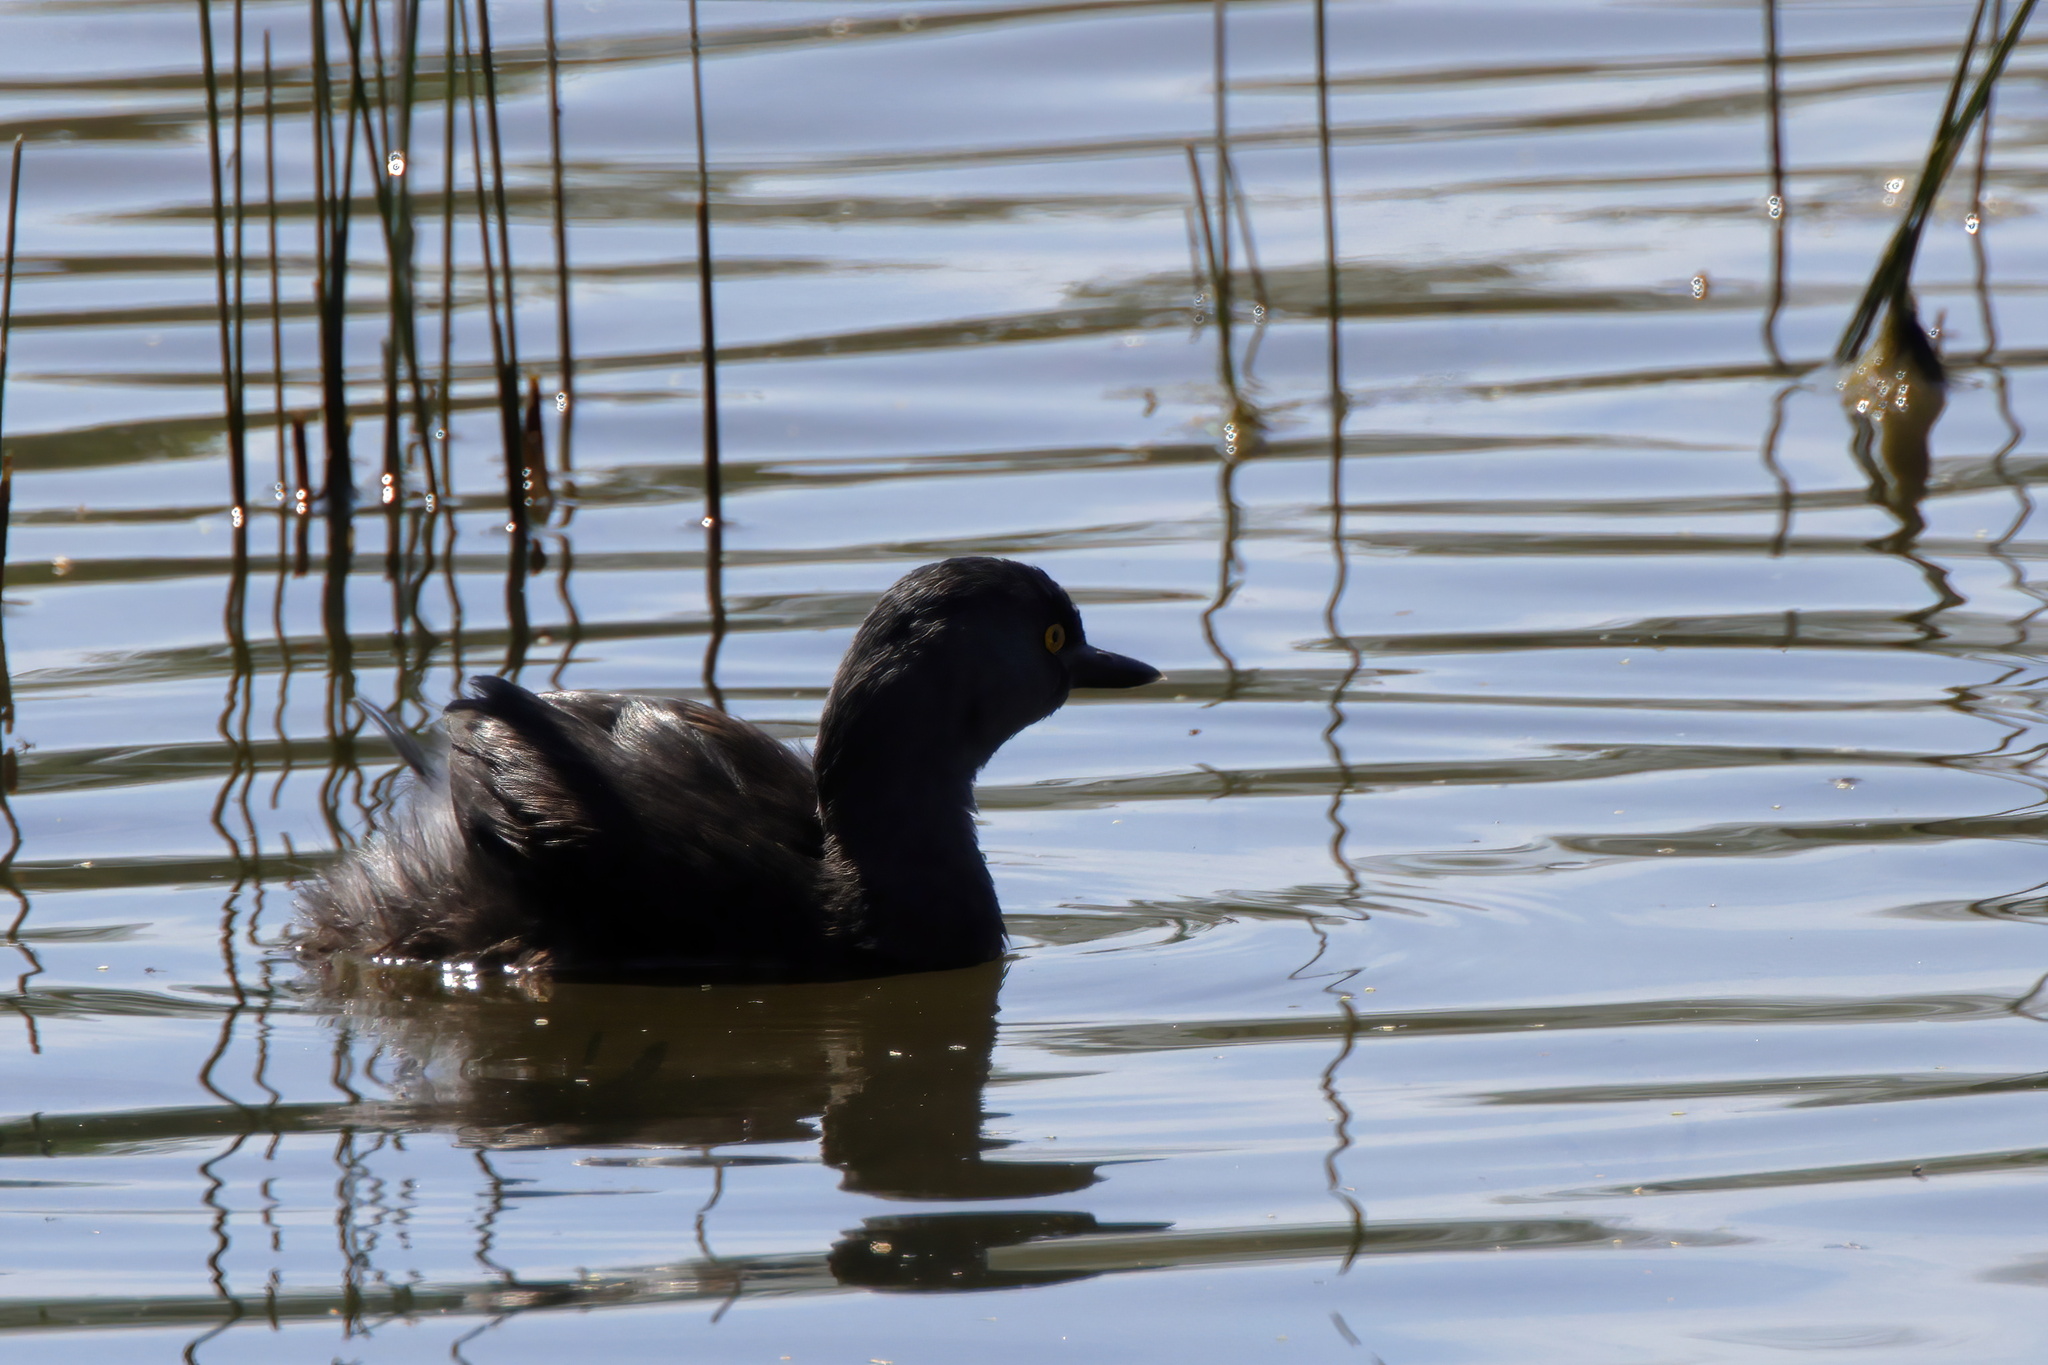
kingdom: Animalia
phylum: Chordata
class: Aves
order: Podicipediformes
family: Podicipedidae
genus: Tachybaptus
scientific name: Tachybaptus dominicus
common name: Least grebe
